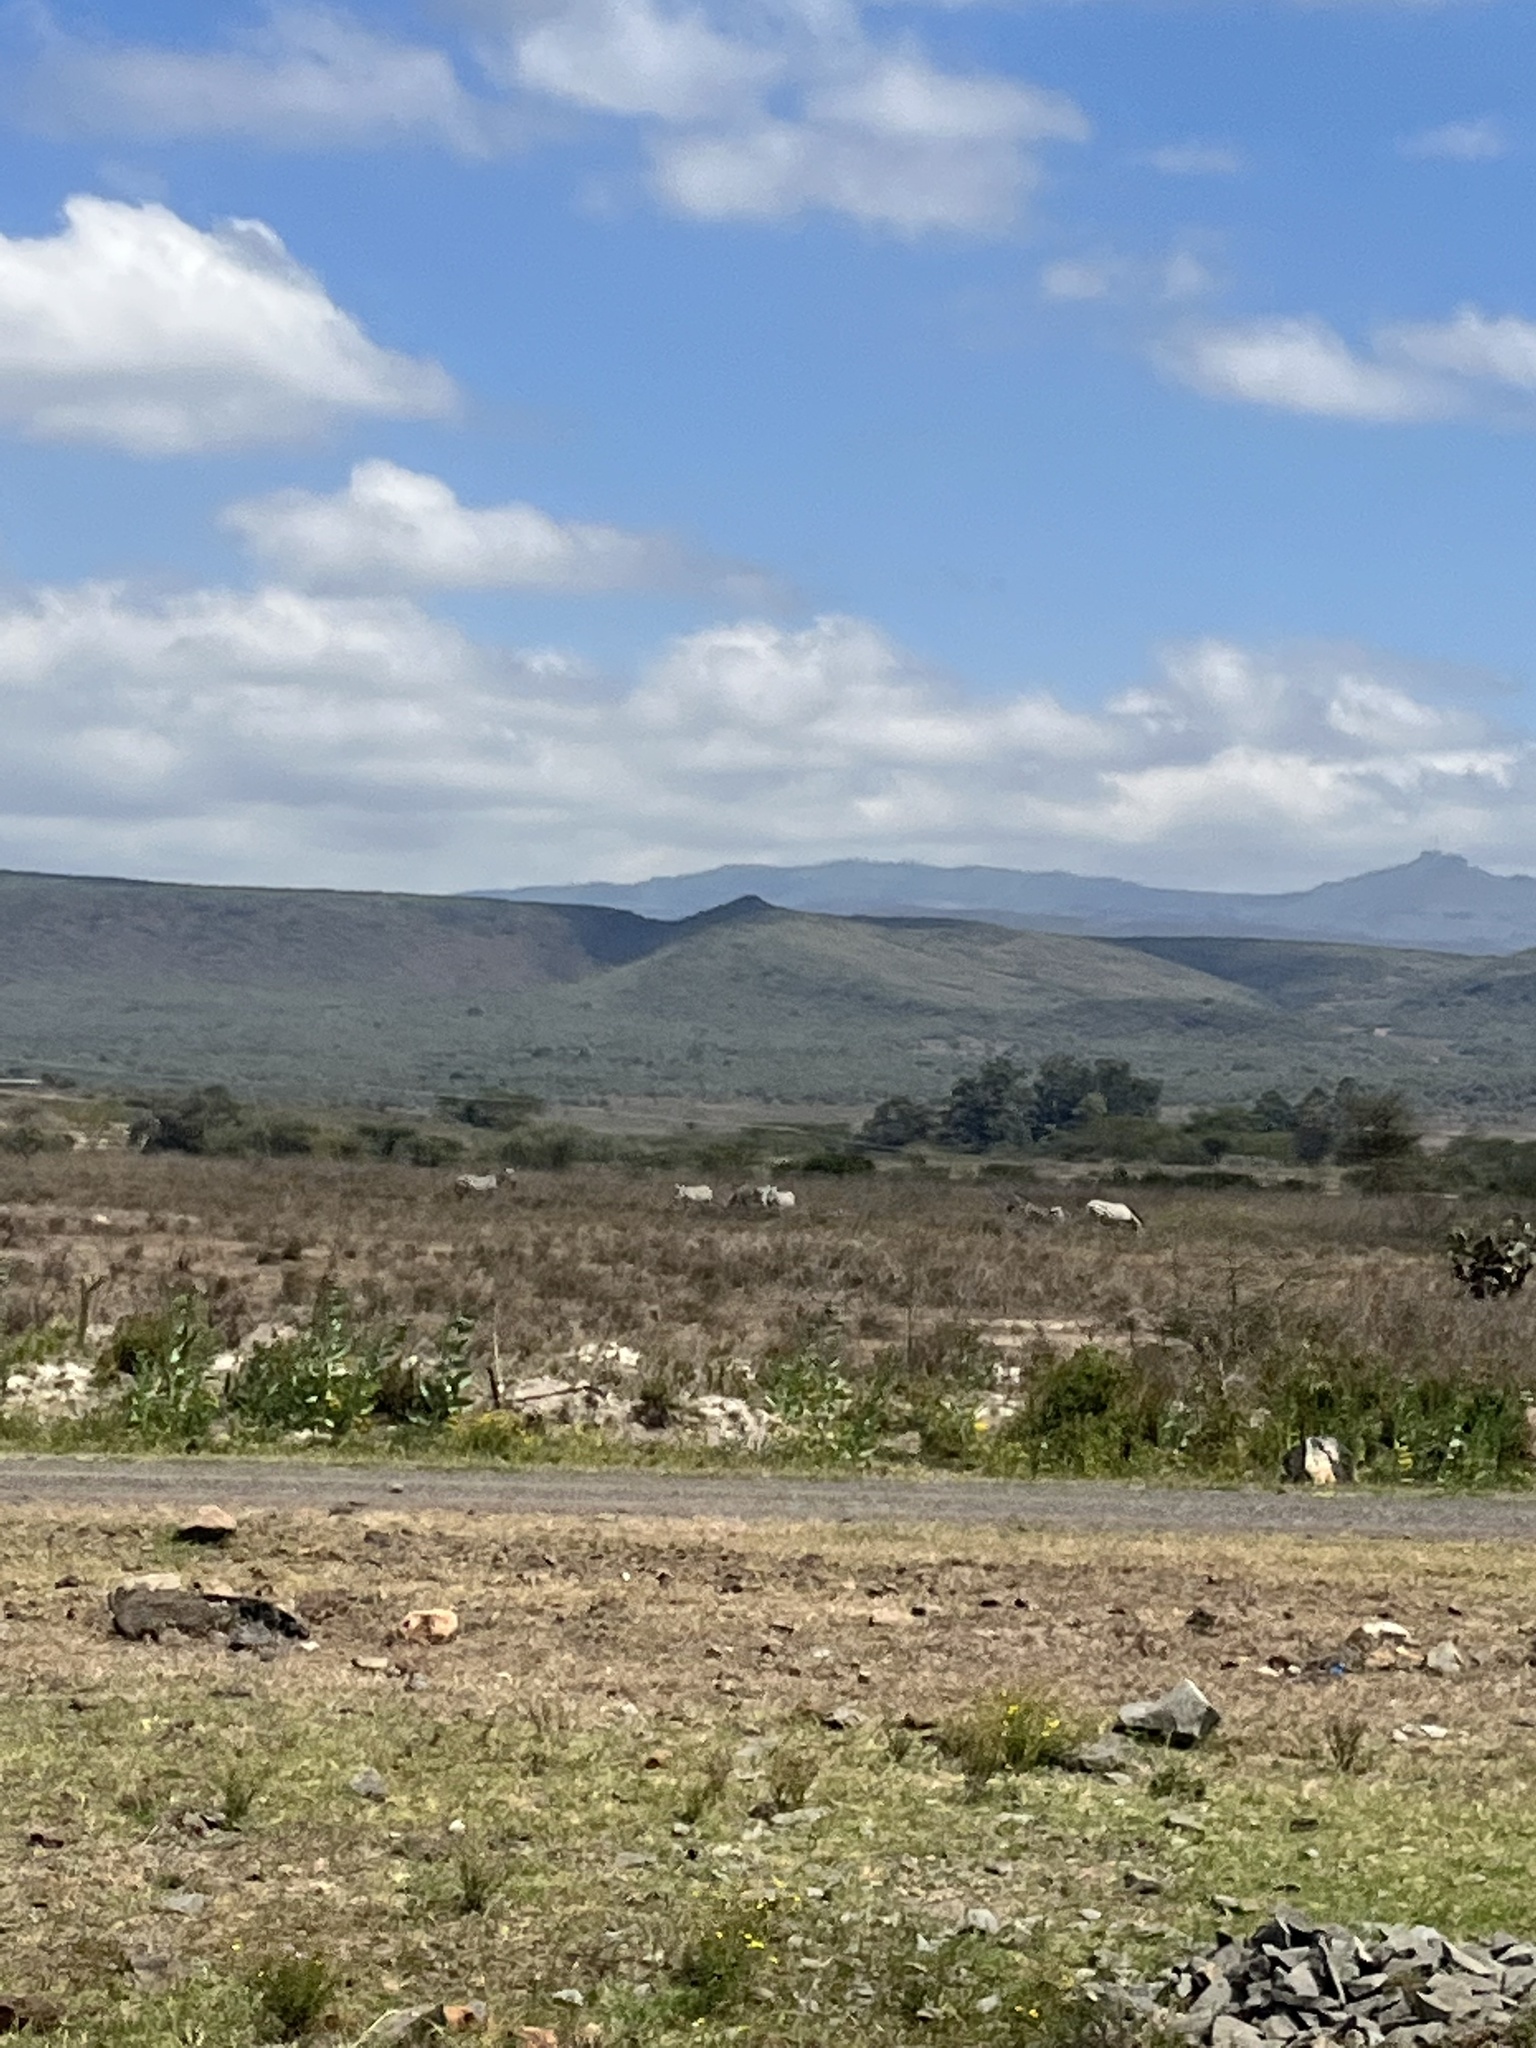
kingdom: Animalia
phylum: Chordata
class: Mammalia
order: Perissodactyla
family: Equidae
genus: Equus
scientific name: Equus quagga
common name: Plains zebra
